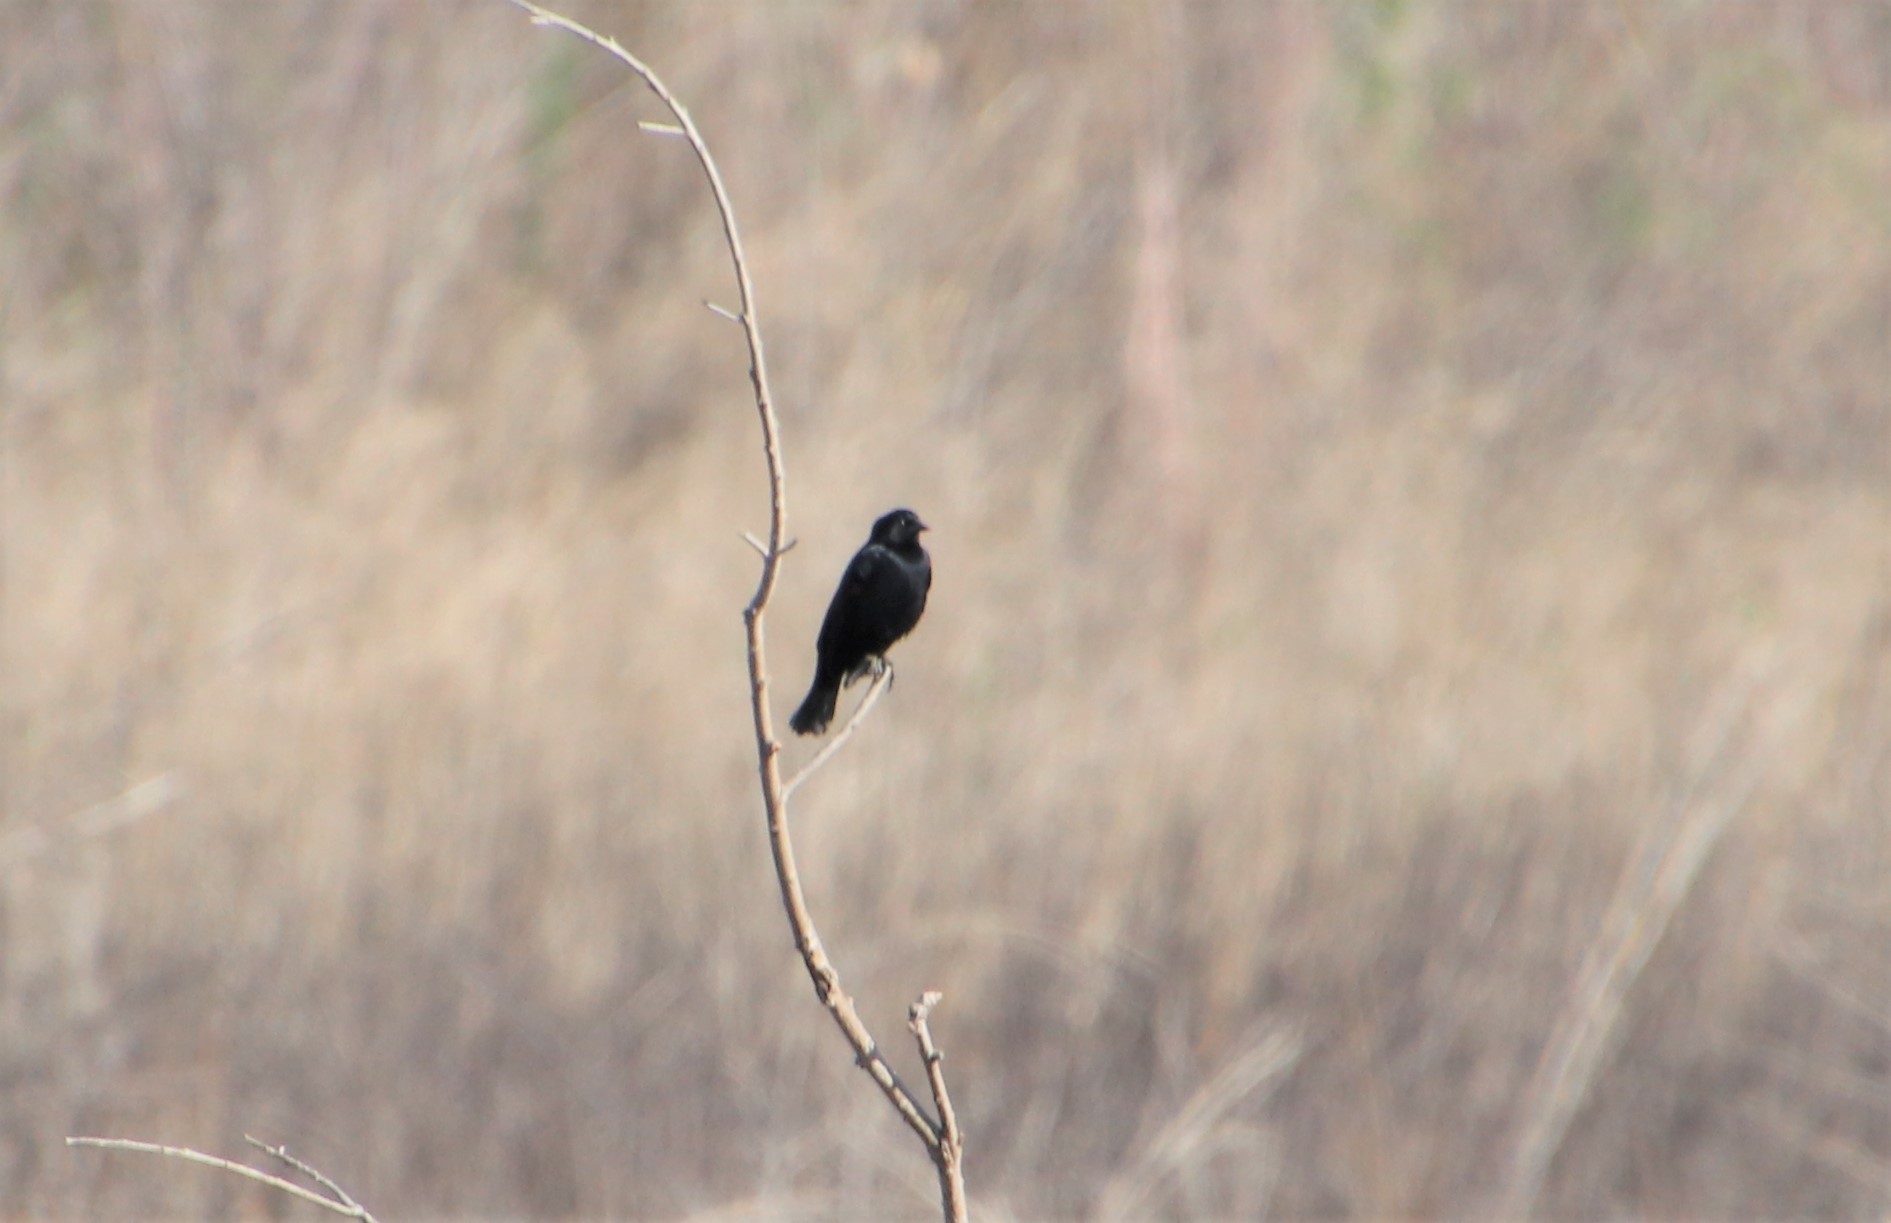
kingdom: Animalia
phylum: Chordata
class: Aves
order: Passeriformes
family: Icteridae
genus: Agelaius
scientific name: Agelaius phoeniceus
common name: Red-winged blackbird
